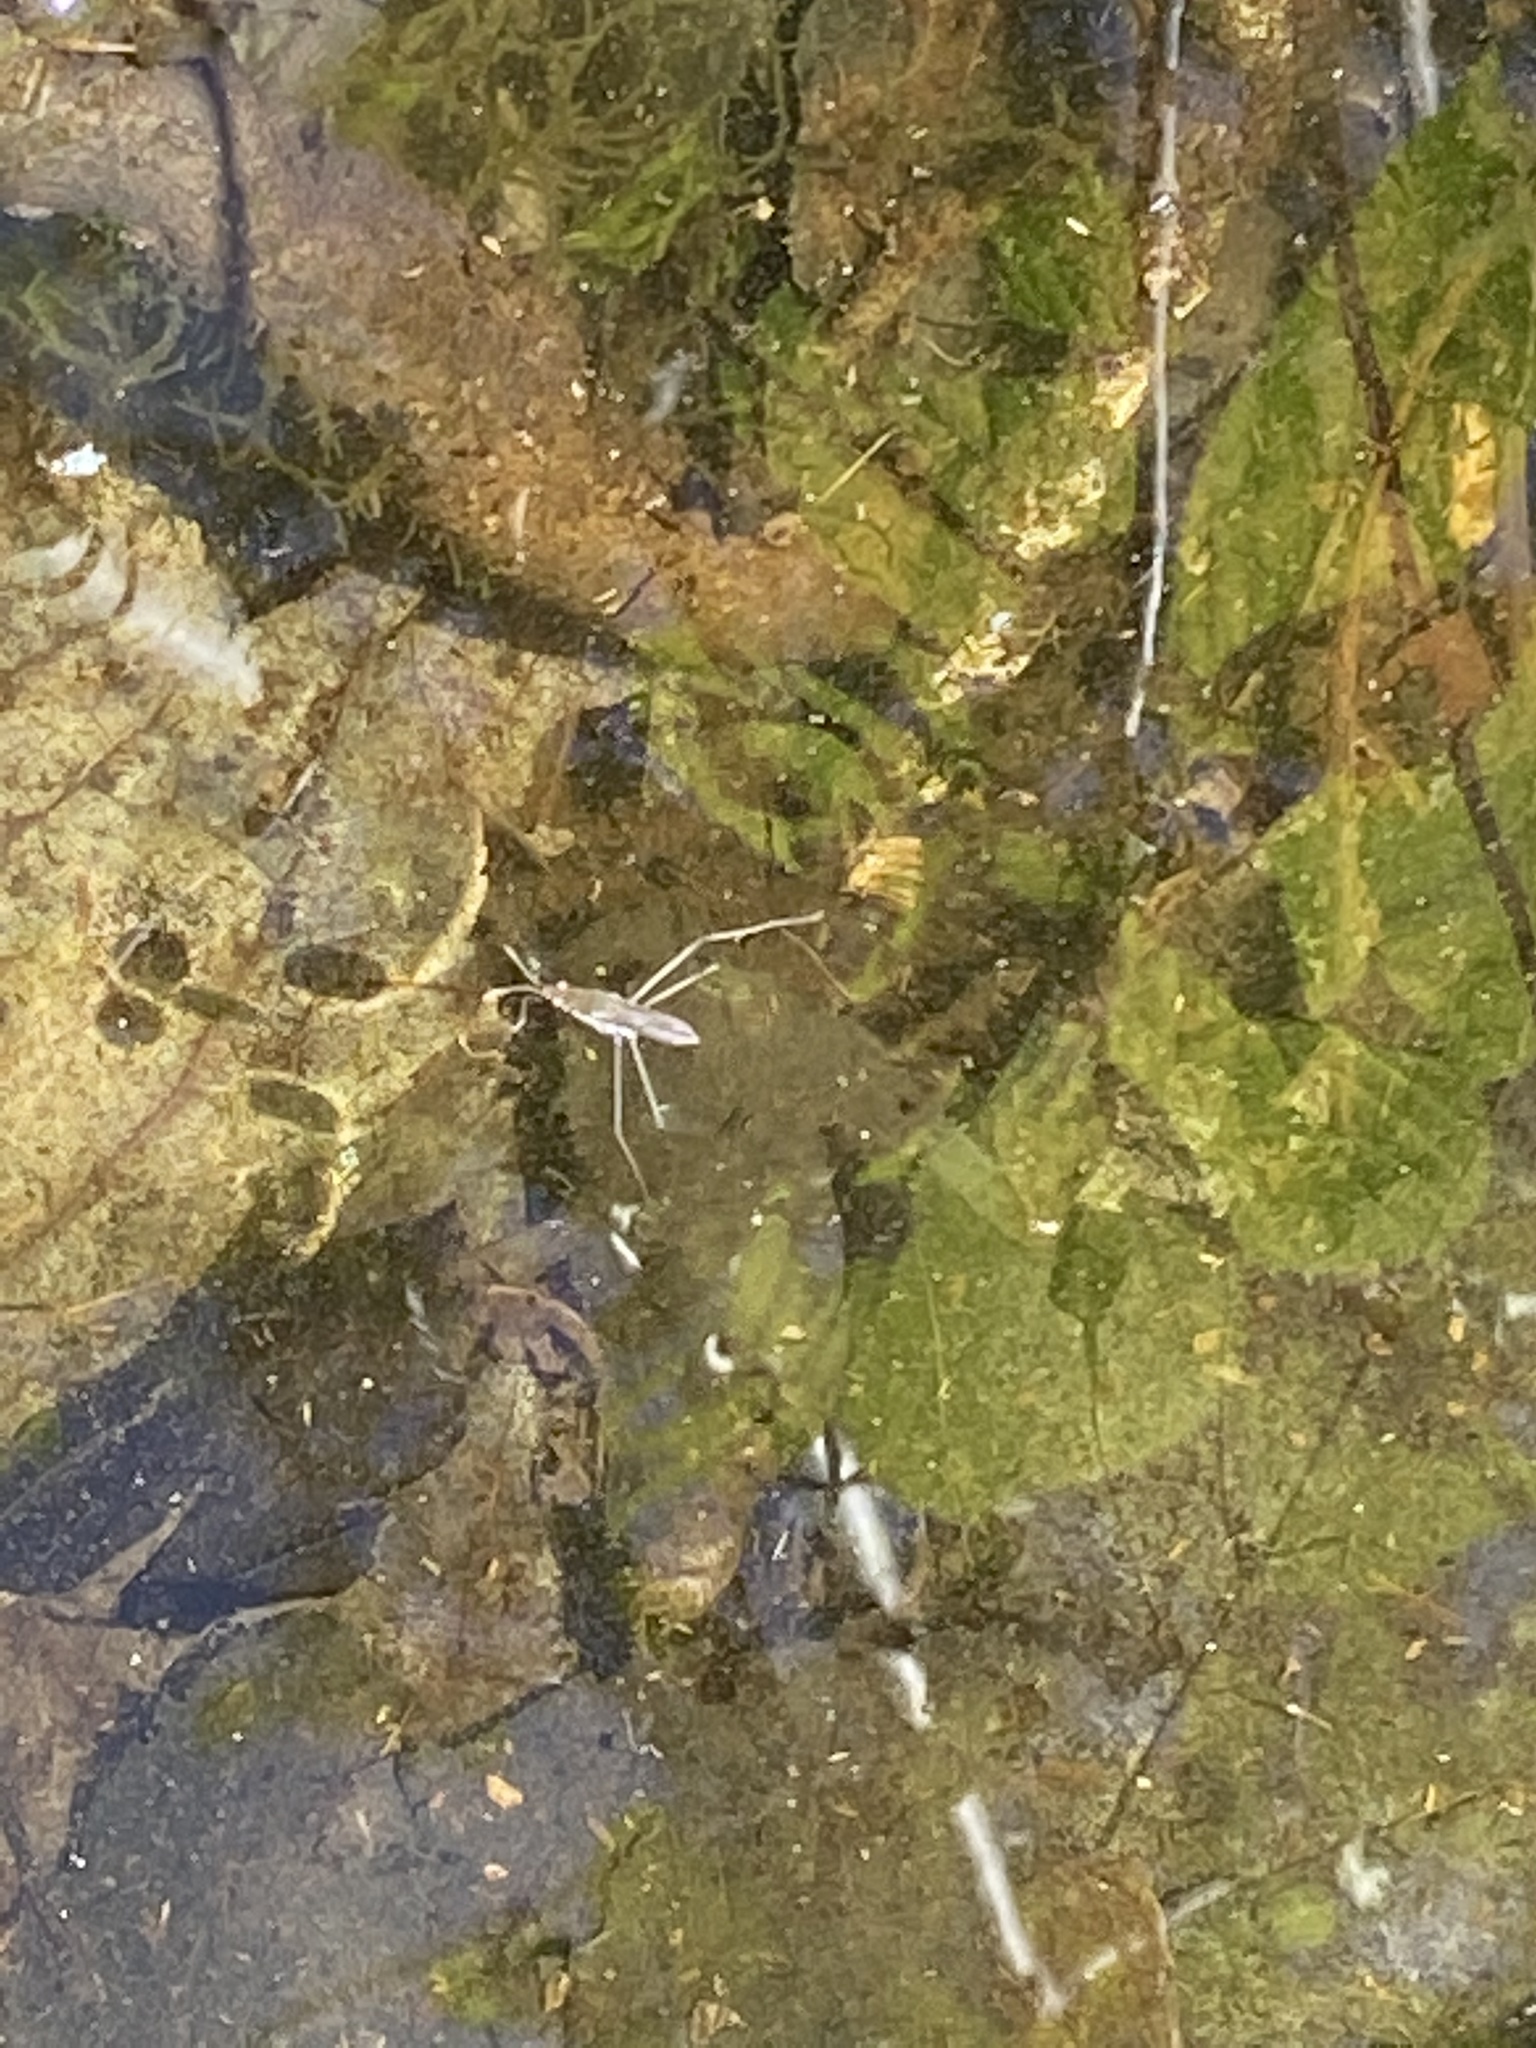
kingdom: Animalia
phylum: Arthropoda
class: Insecta
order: Hemiptera
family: Gerridae
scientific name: Gerridae
